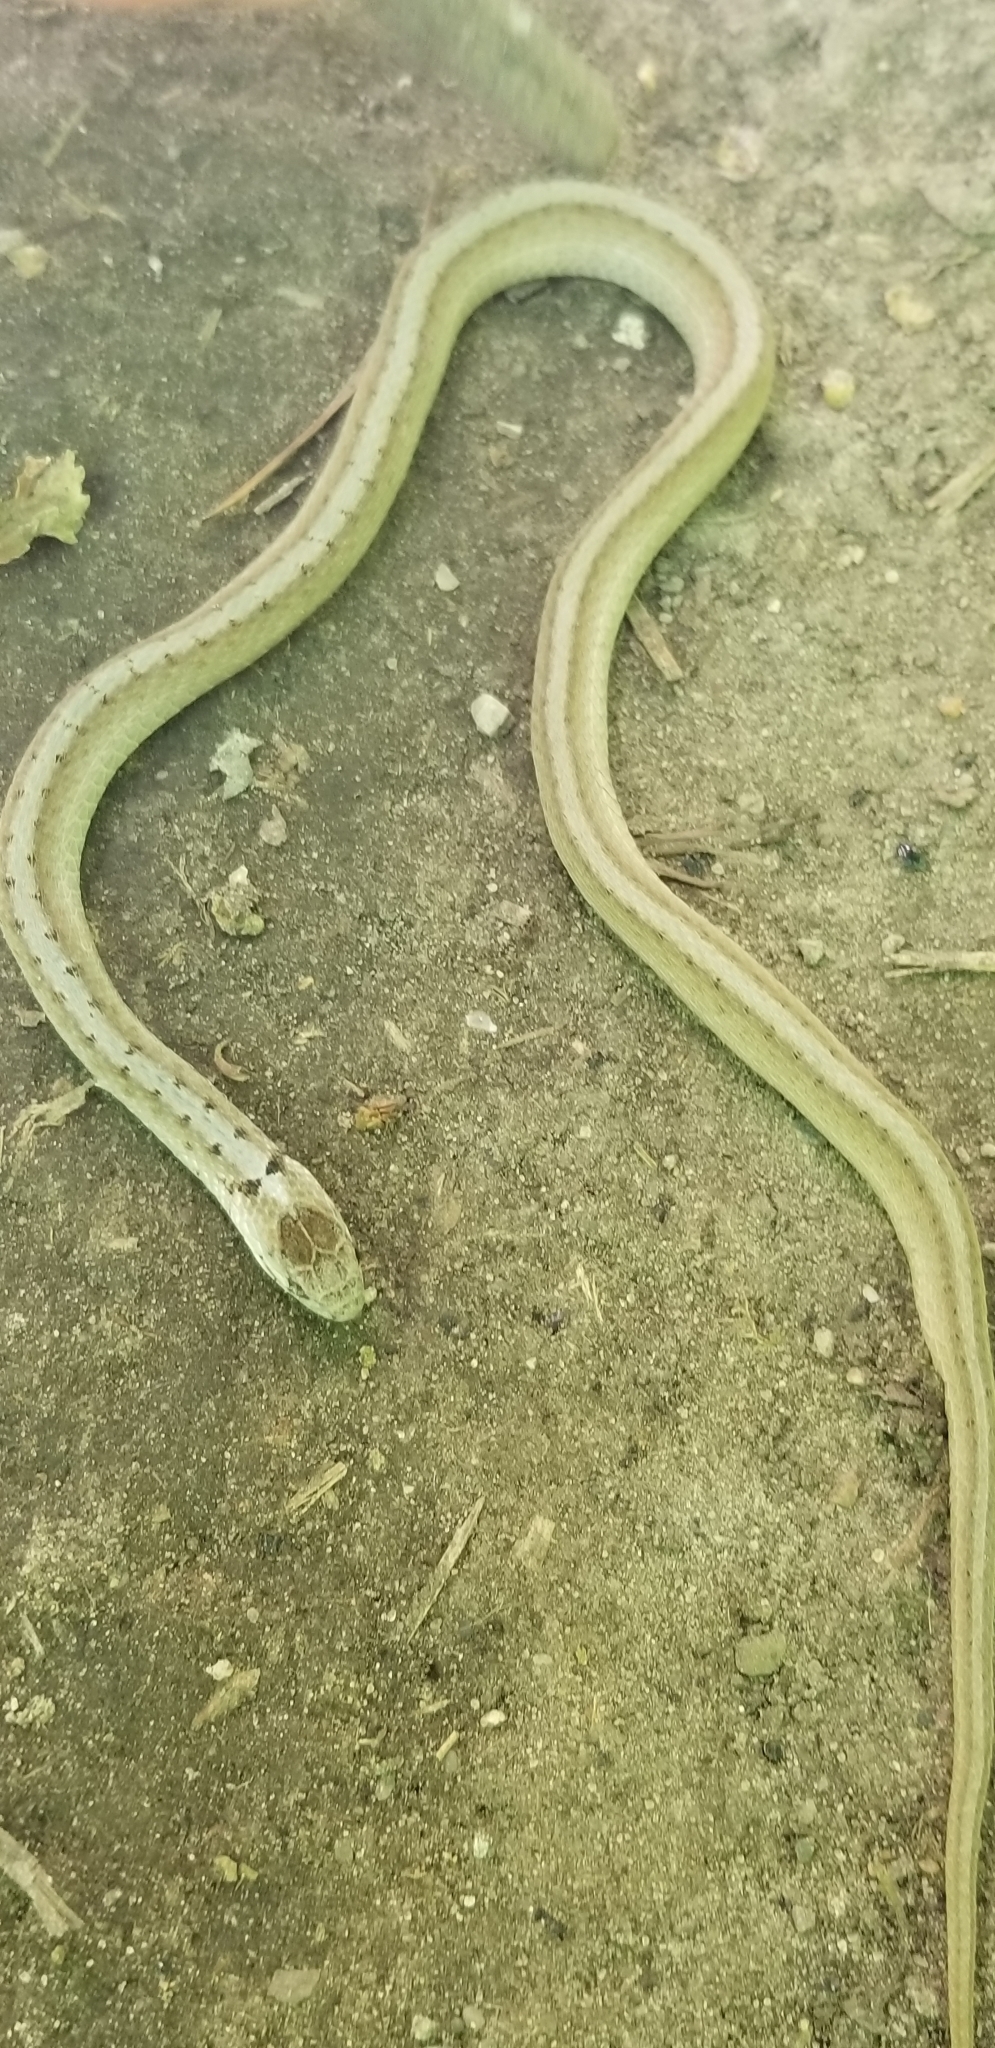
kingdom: Animalia
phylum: Chordata
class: Squamata
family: Colubridae
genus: Storeria
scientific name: Storeria dekayi
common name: (dekay’s) brown snake
